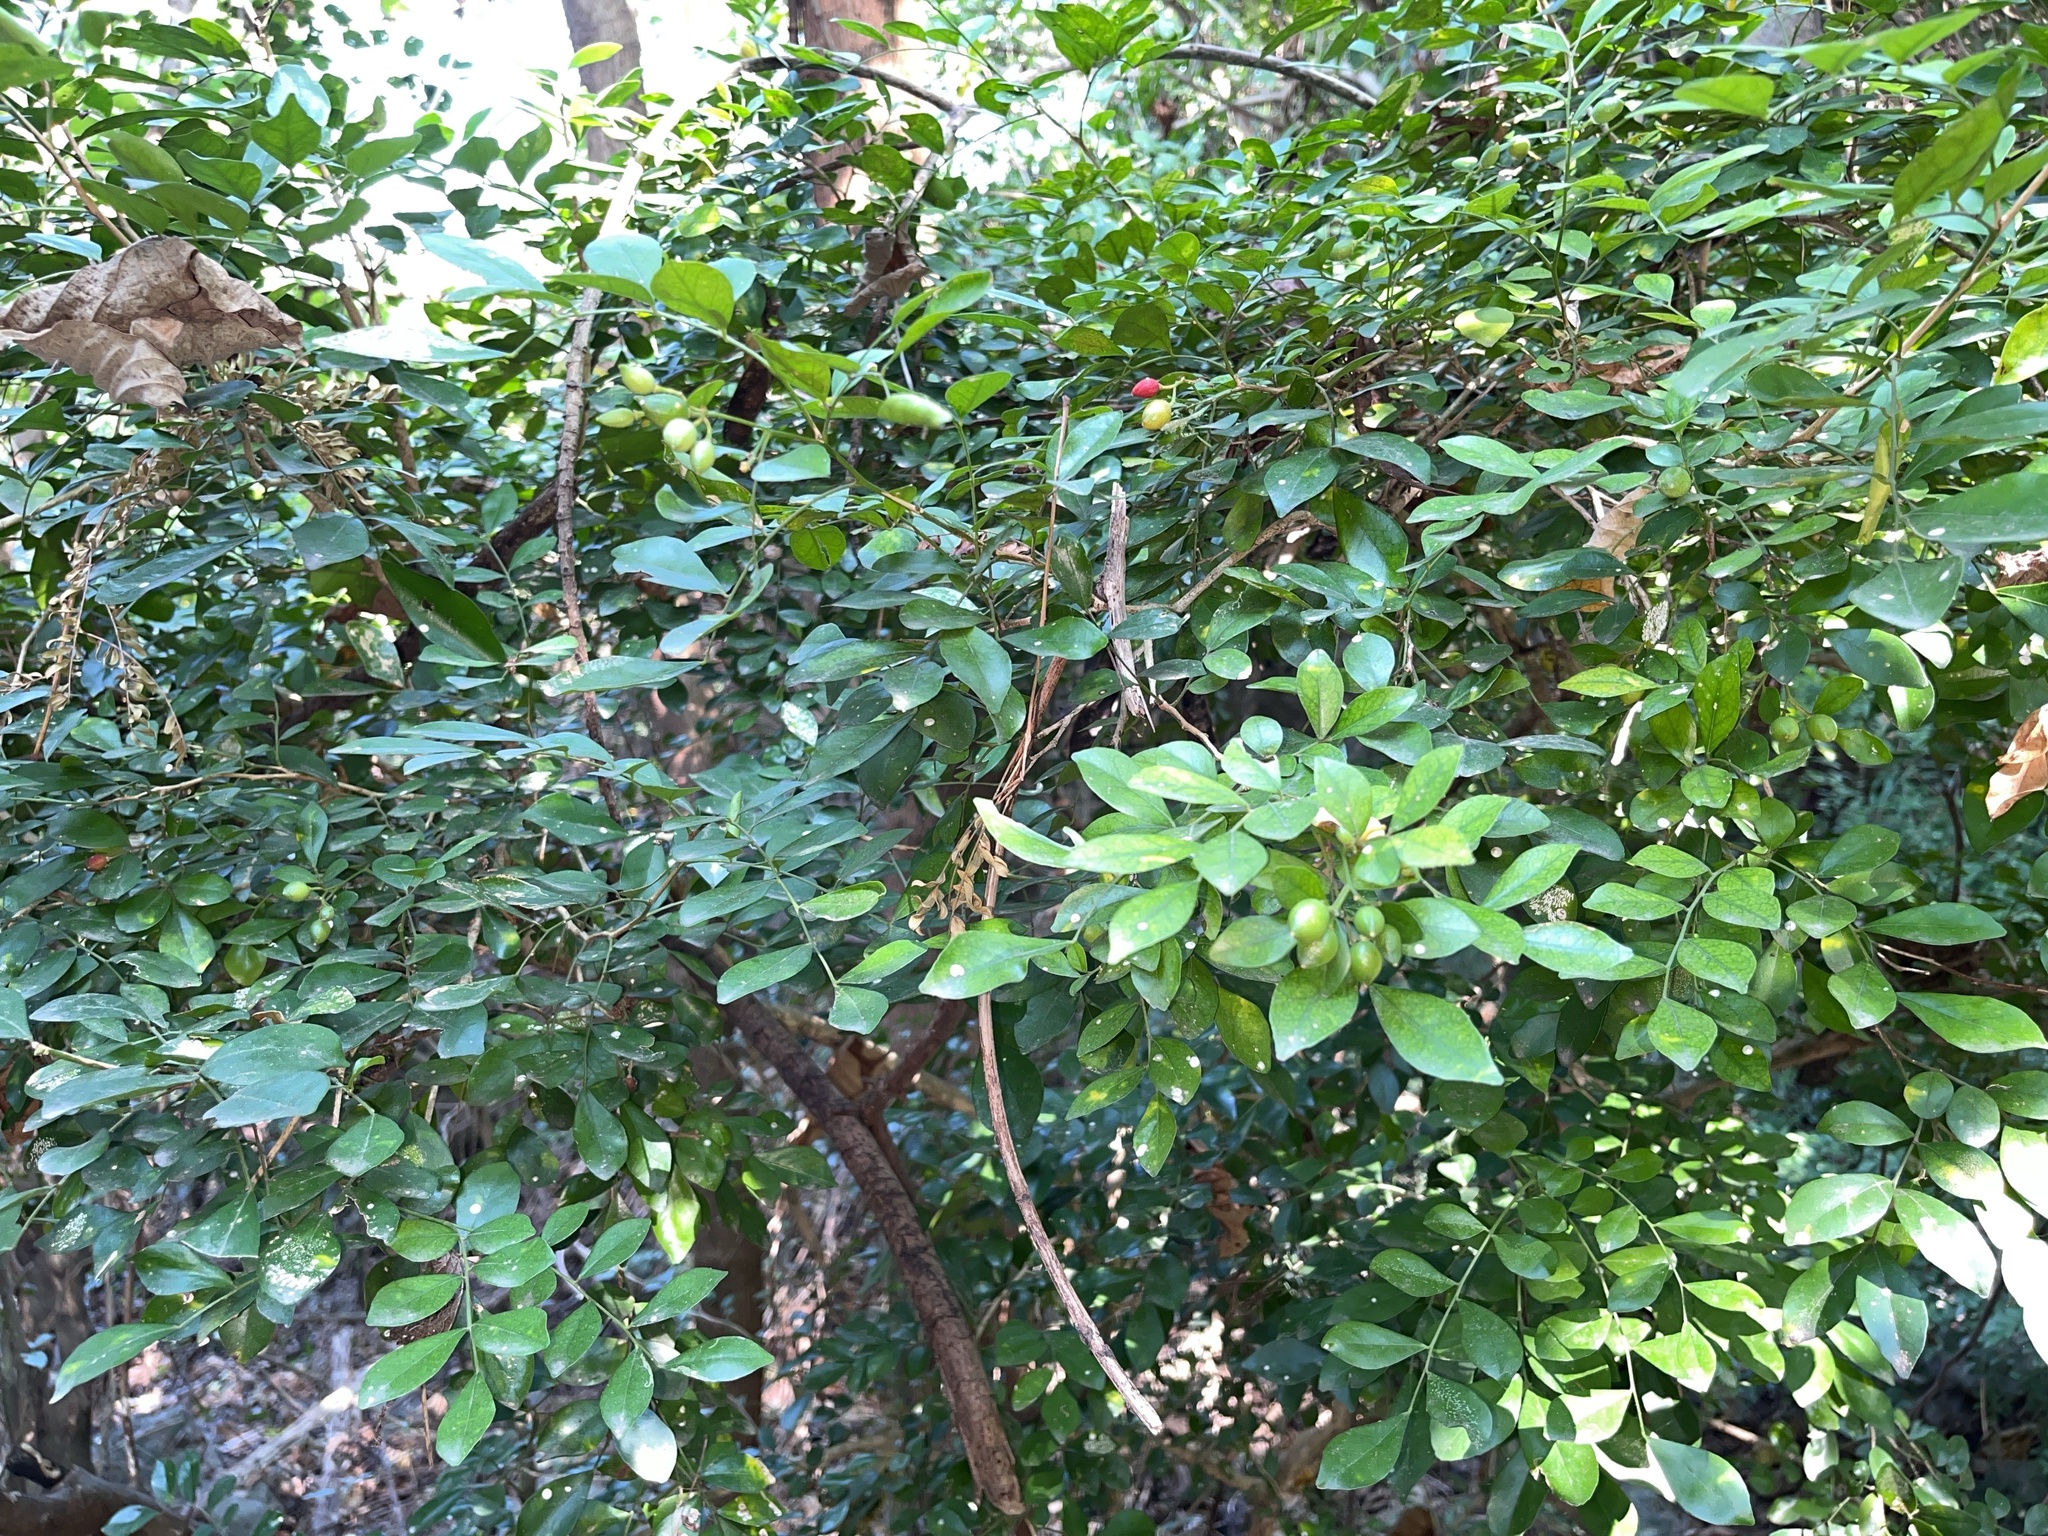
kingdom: Plantae
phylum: Tracheophyta
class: Magnoliopsida
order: Sapindales
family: Rutaceae
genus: Murraya
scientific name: Murraya paniculata
